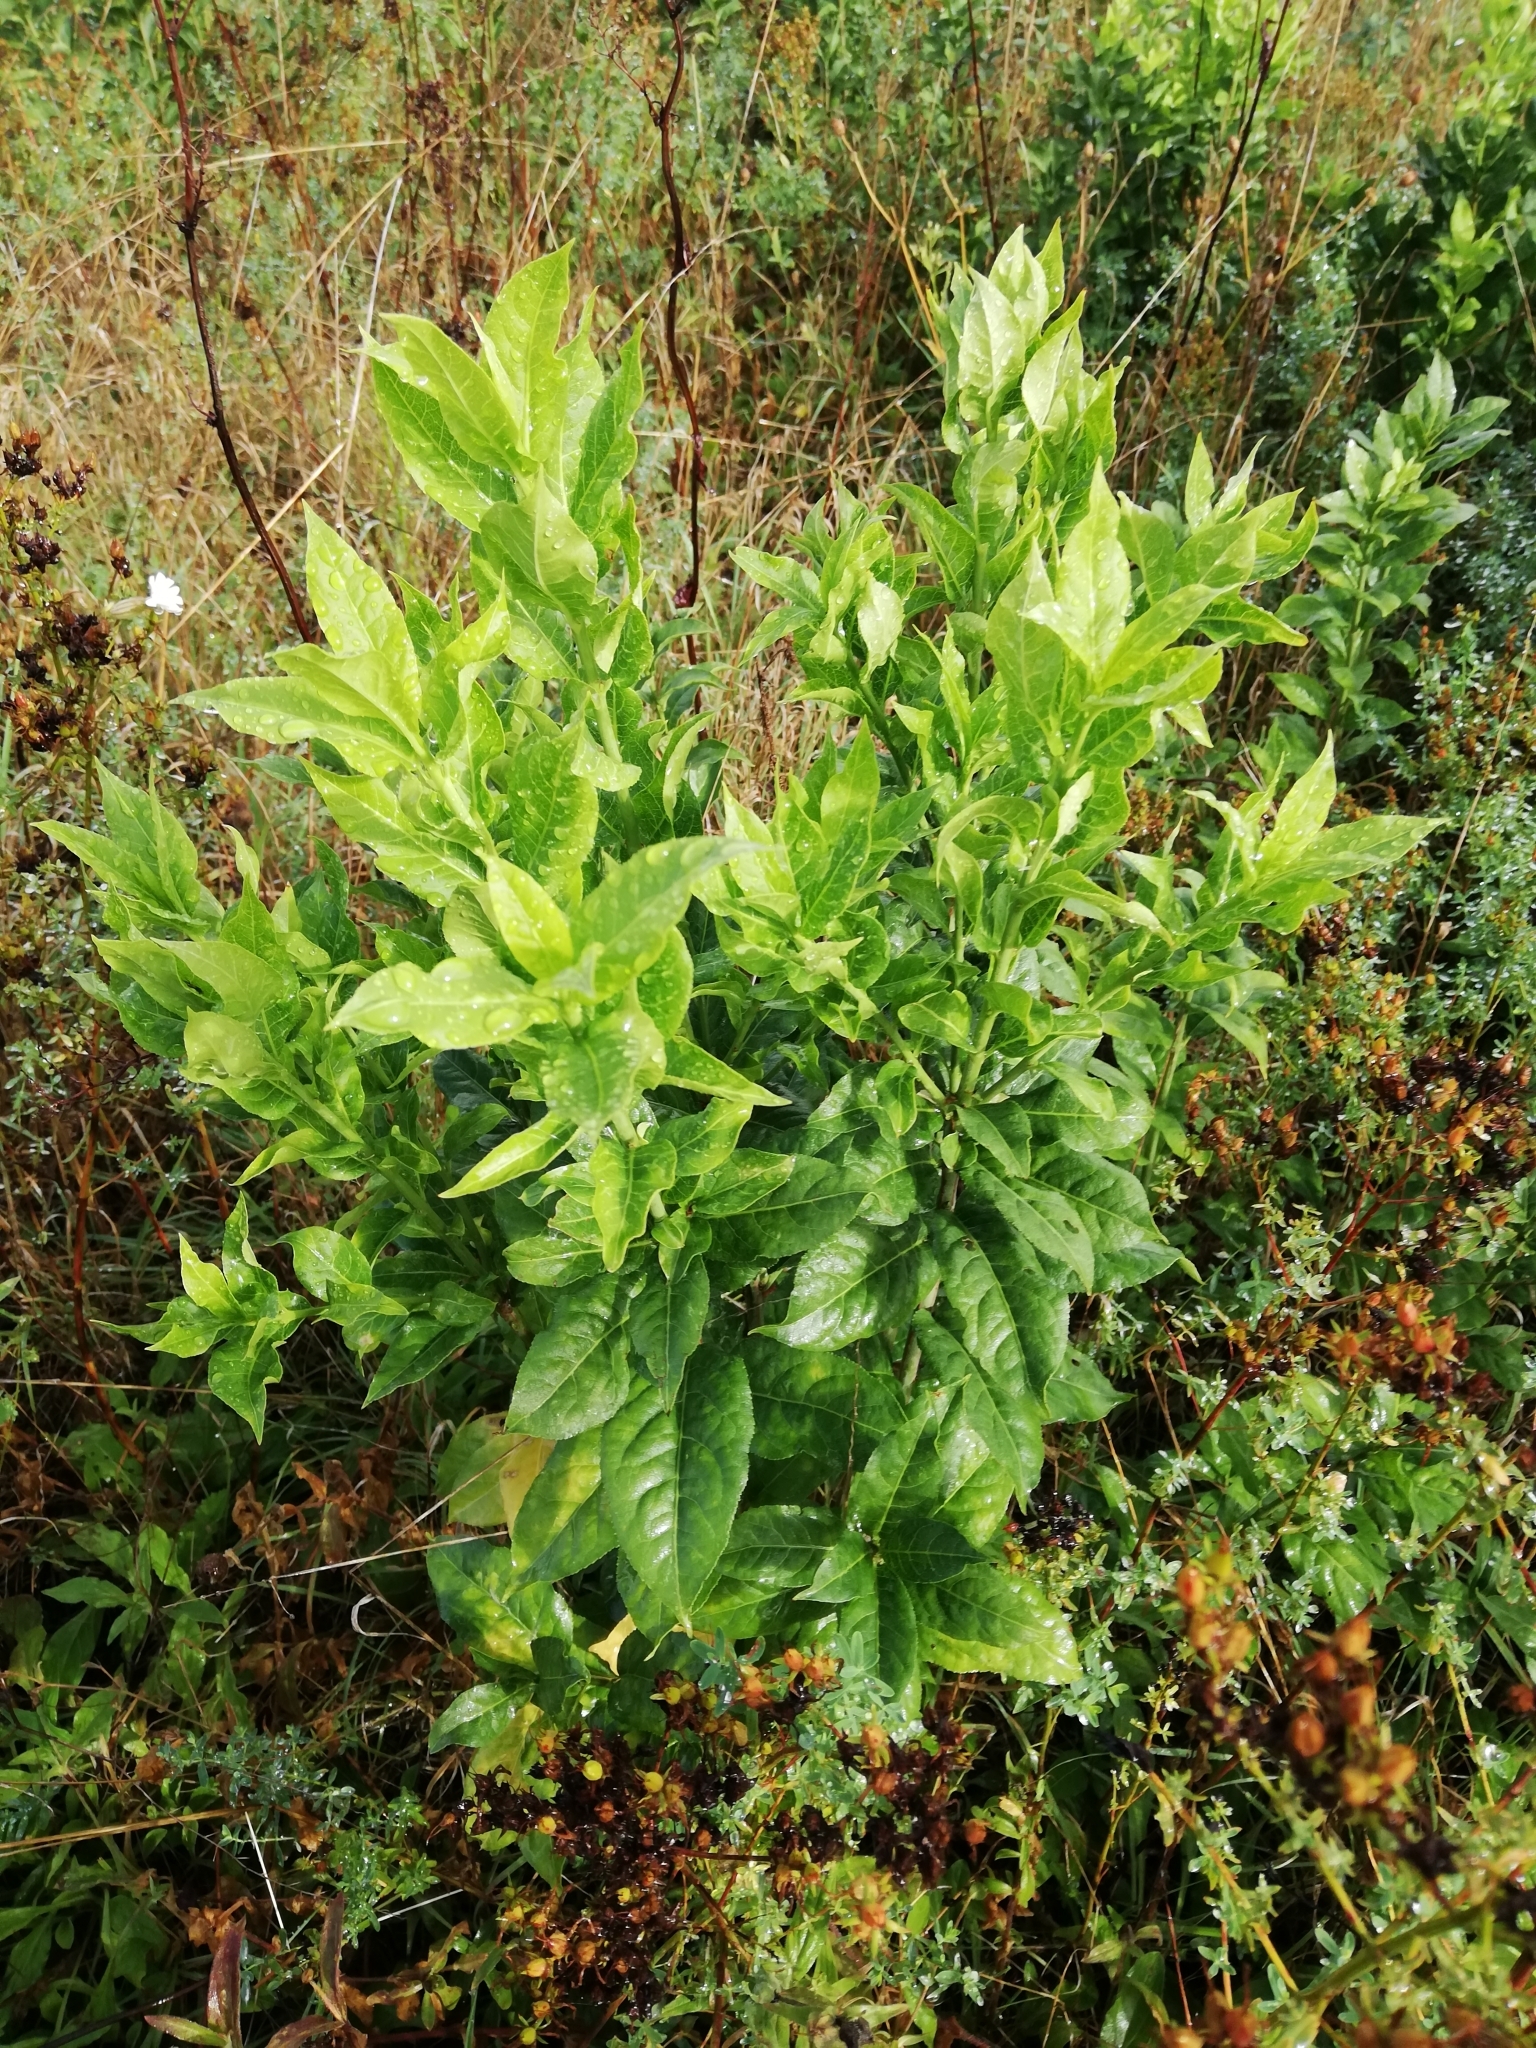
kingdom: Plantae
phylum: Tracheophyta
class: Magnoliopsida
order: Celastrales
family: Celastraceae
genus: Euonymus
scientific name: Euonymus europaeus
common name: Spindle
